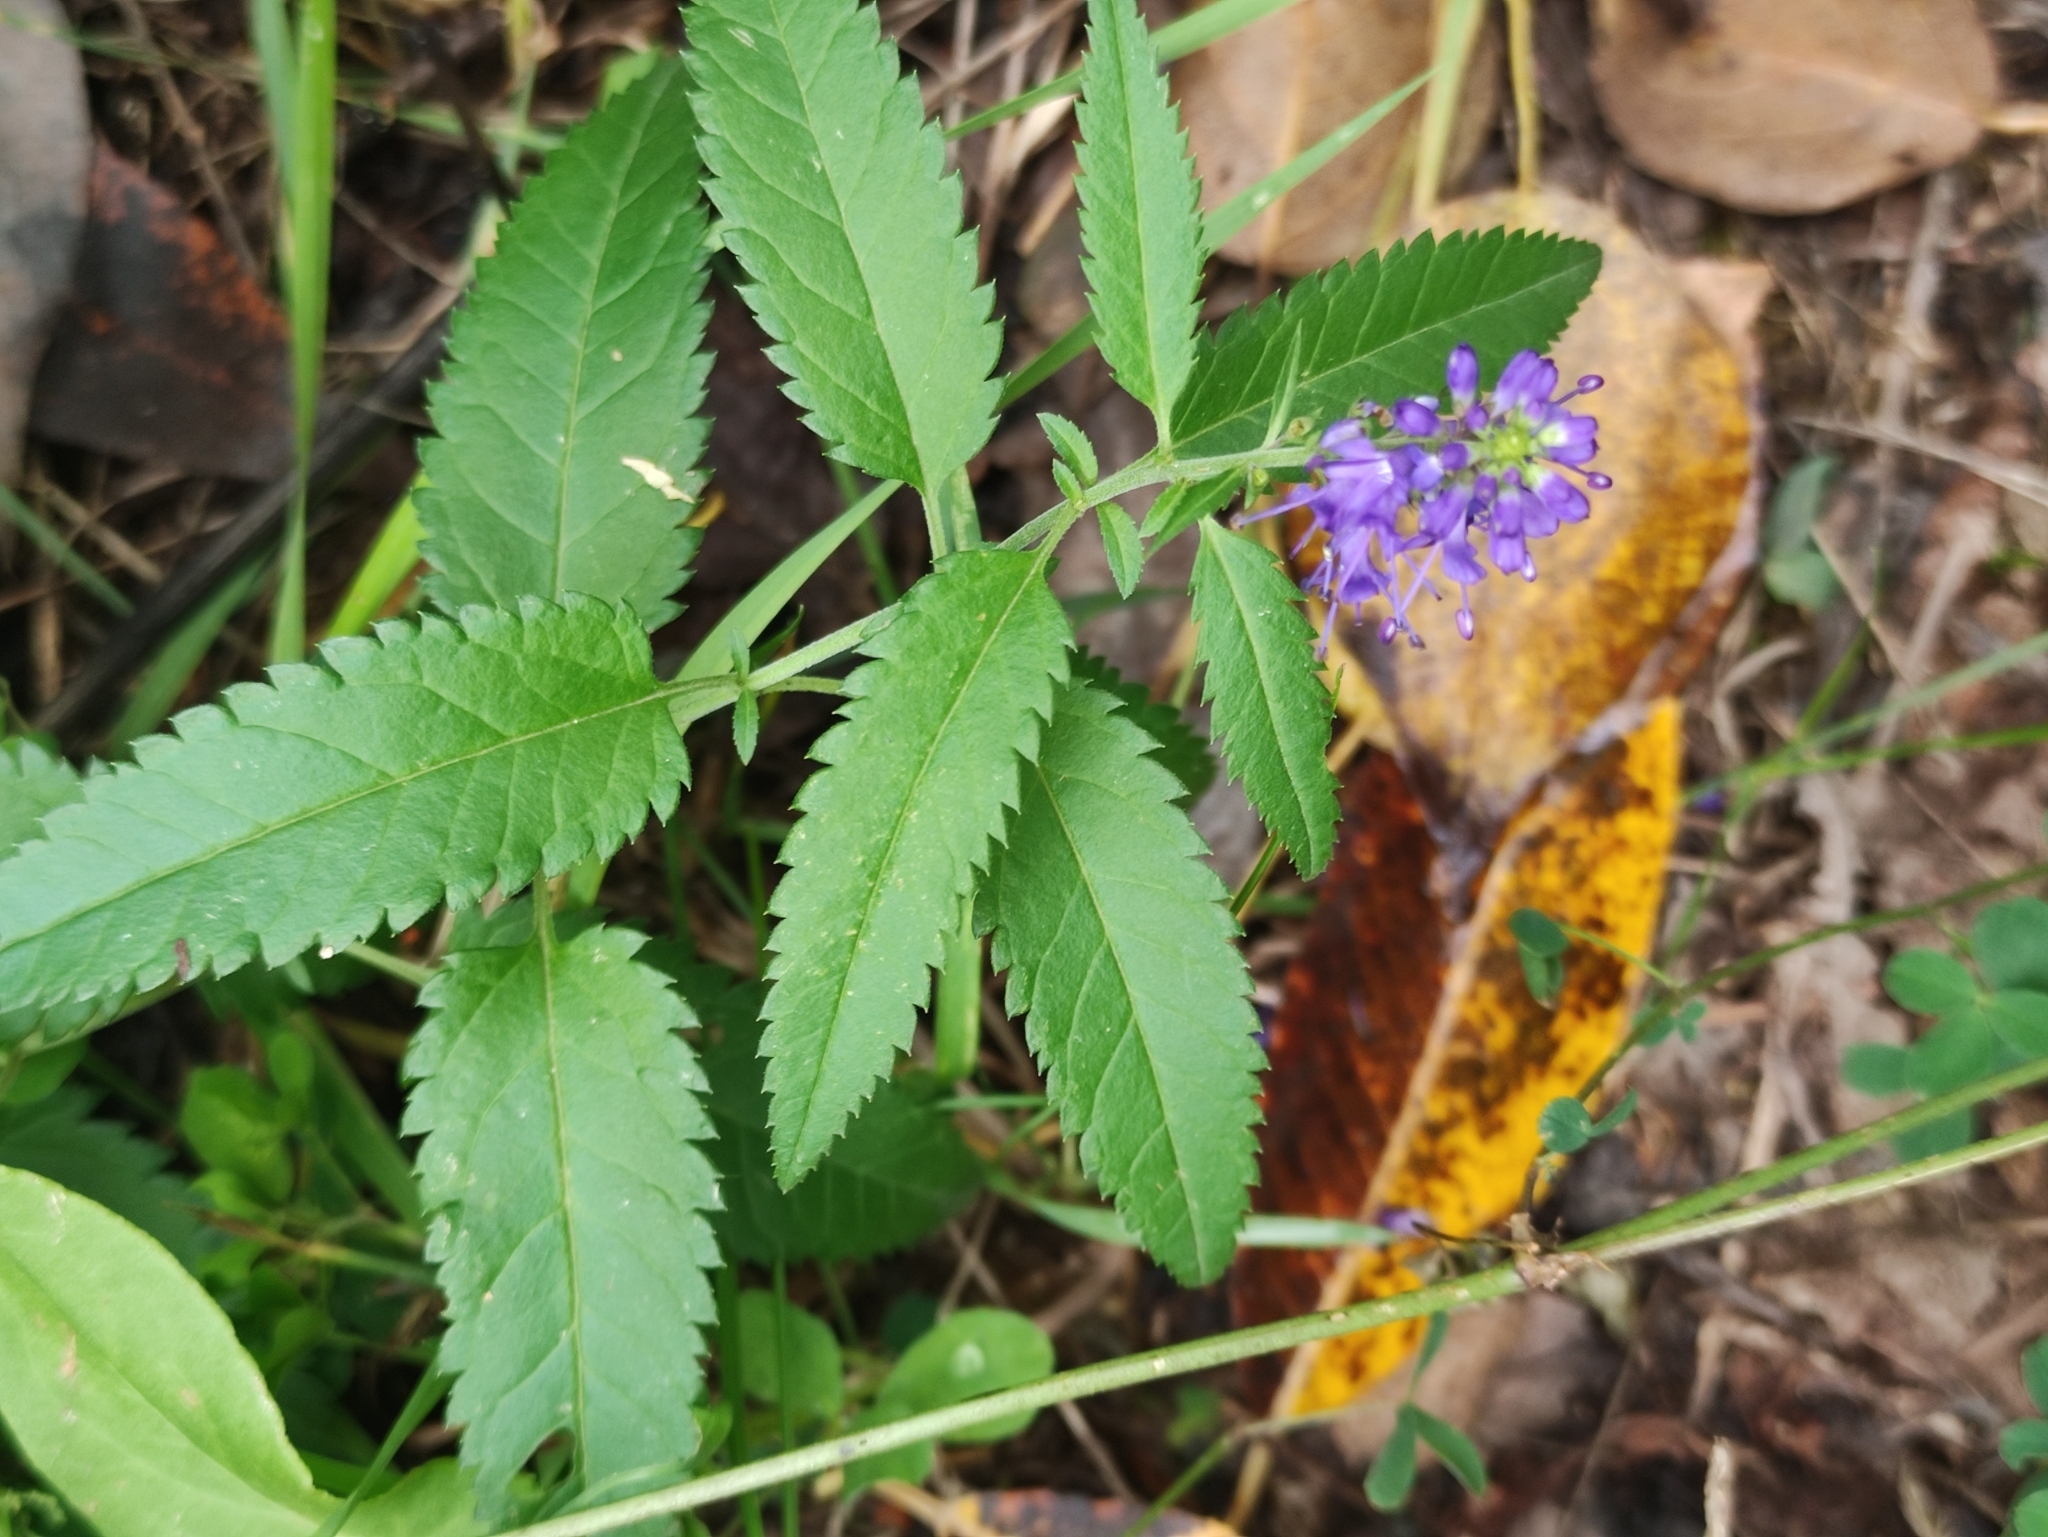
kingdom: Plantae
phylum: Tracheophyta
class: Magnoliopsida
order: Lamiales
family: Plantaginaceae
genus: Veronica
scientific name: Veronica longifolia
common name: Garden speedwell
